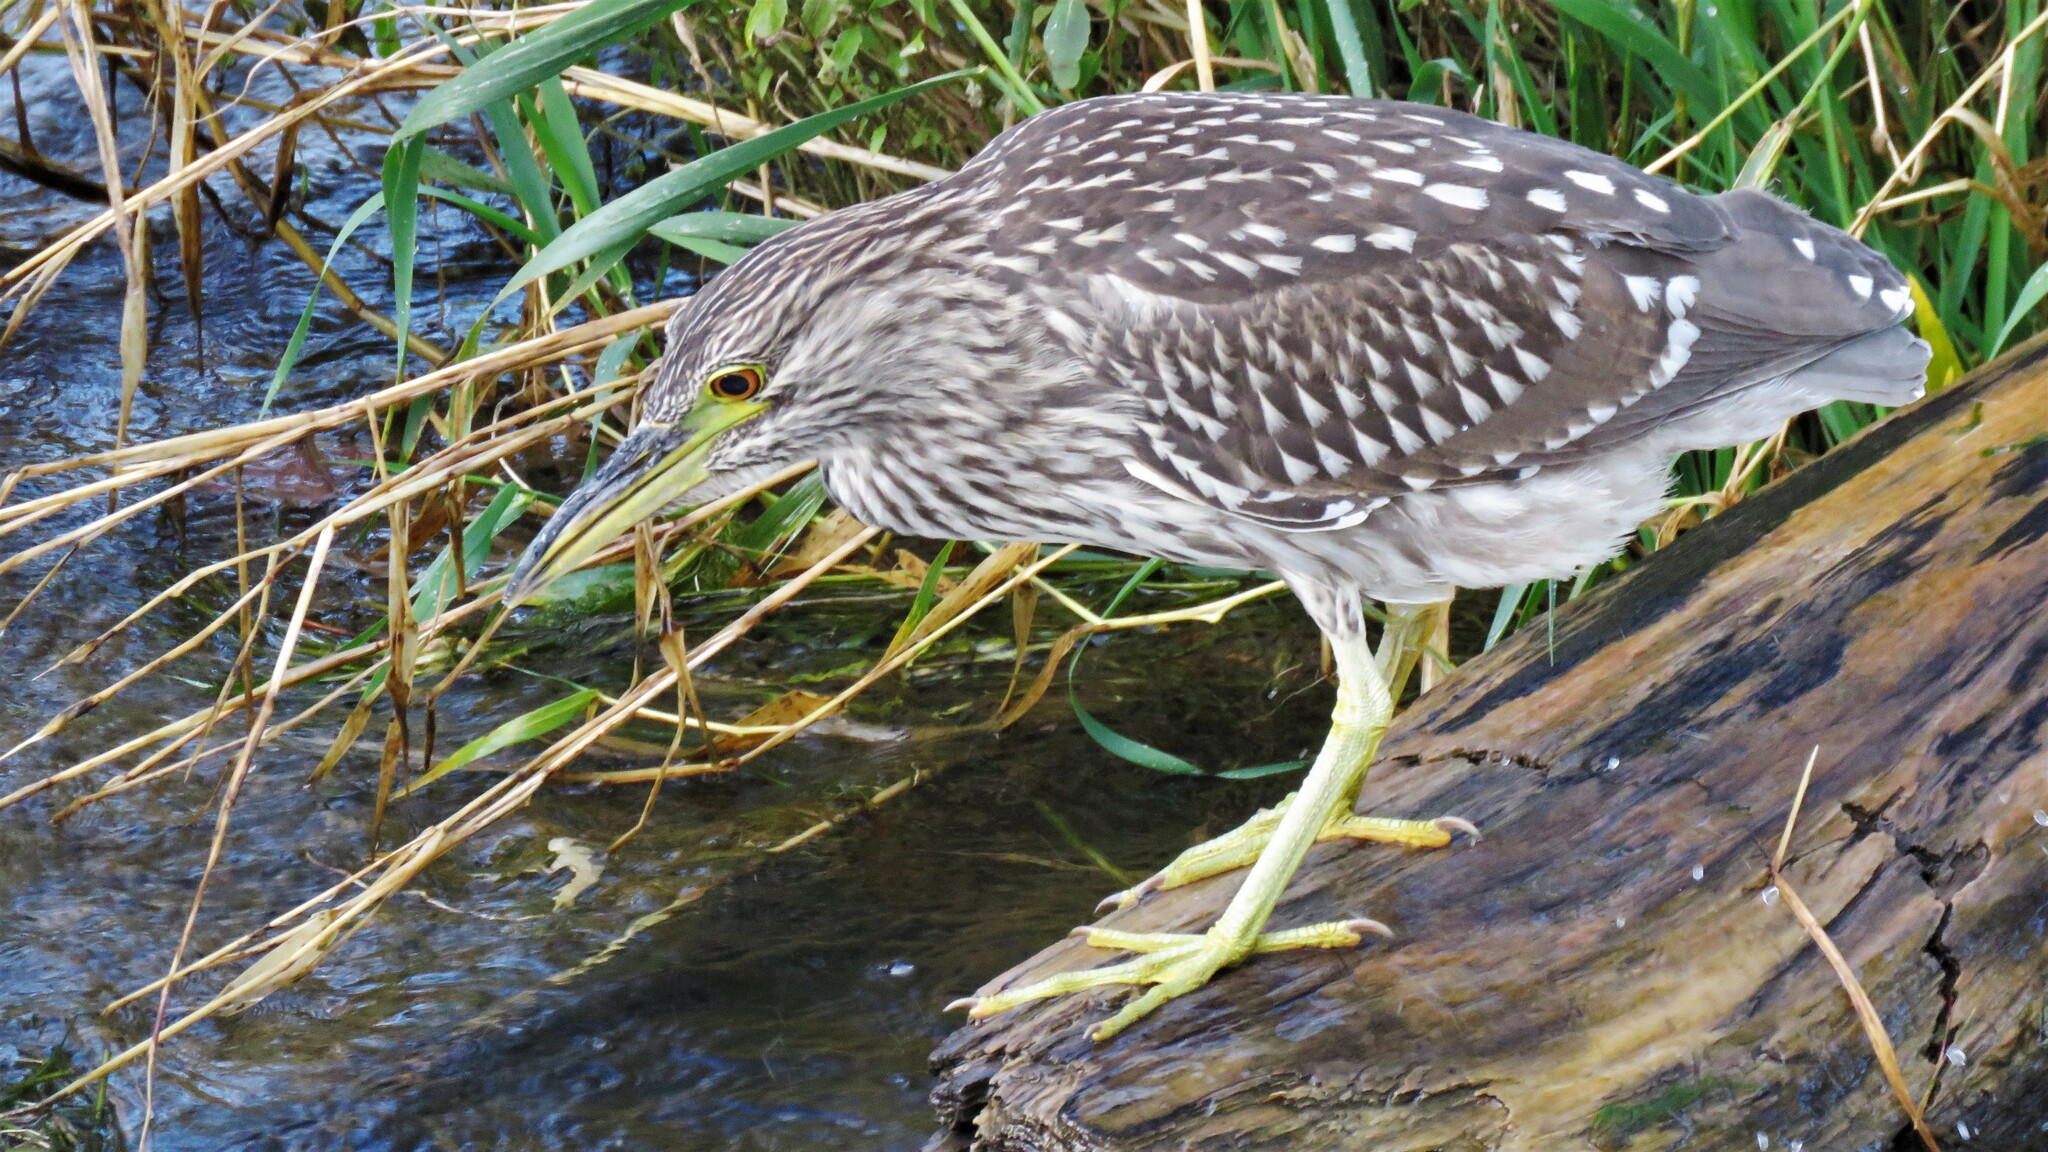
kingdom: Animalia
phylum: Chordata
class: Aves
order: Pelecaniformes
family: Ardeidae
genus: Nycticorax
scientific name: Nycticorax nycticorax
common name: Black-crowned night heron
